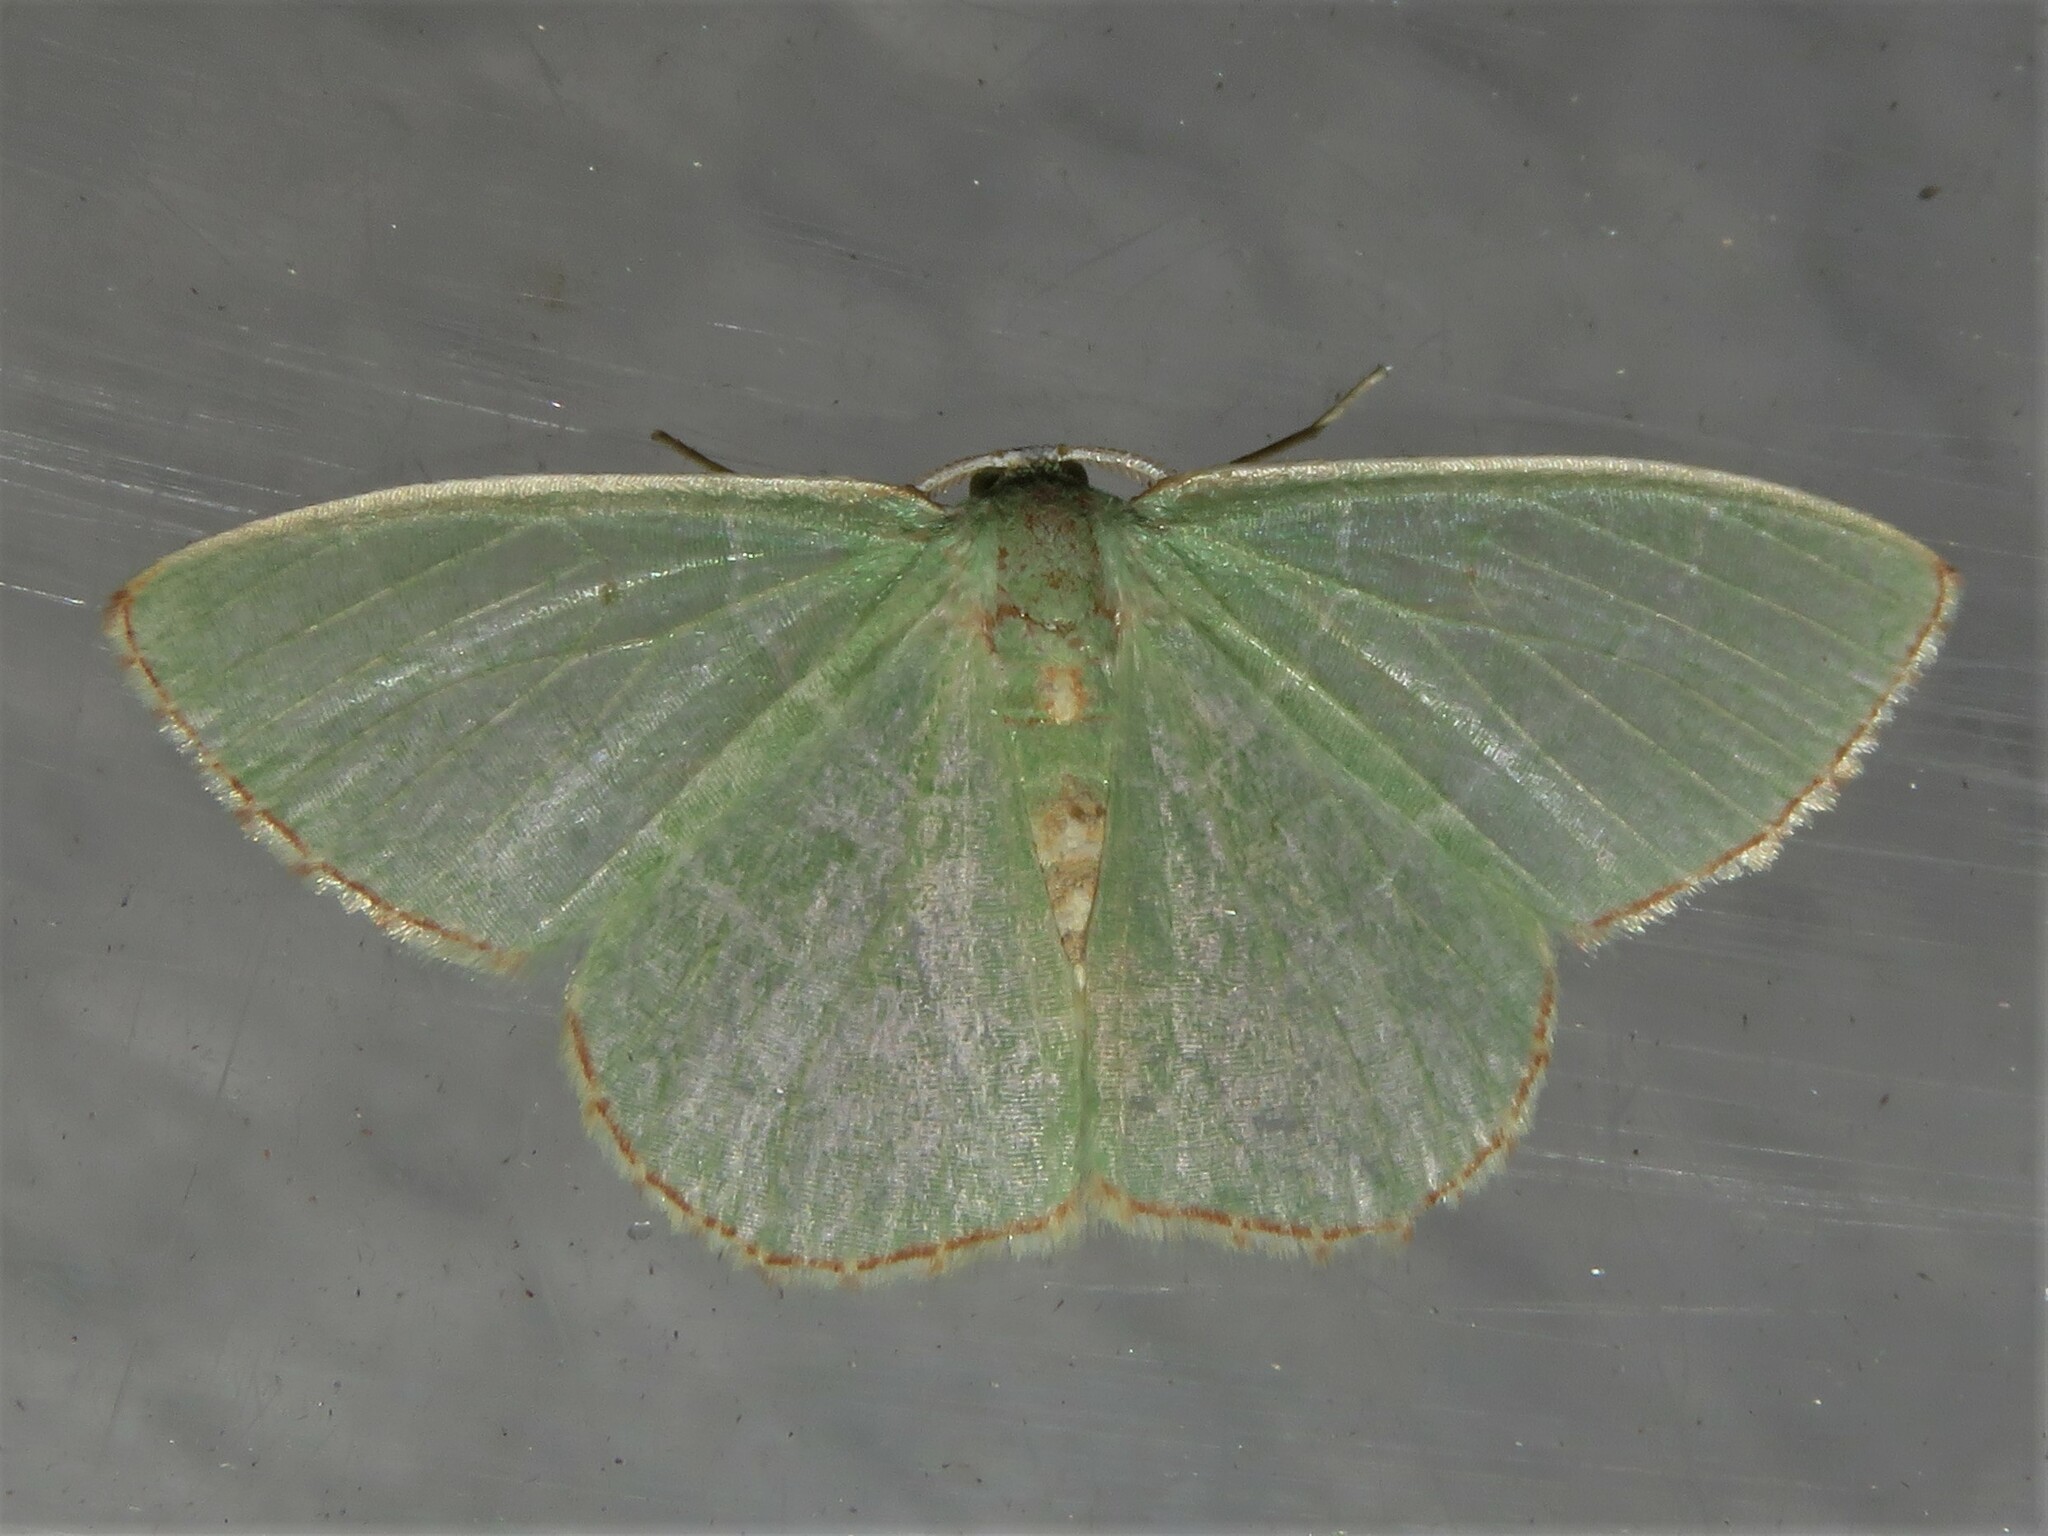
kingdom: Animalia
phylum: Arthropoda
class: Insecta
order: Lepidoptera
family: Geometridae
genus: Nemoria
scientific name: Nemoria bistriaria
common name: Red-fringed emerald
